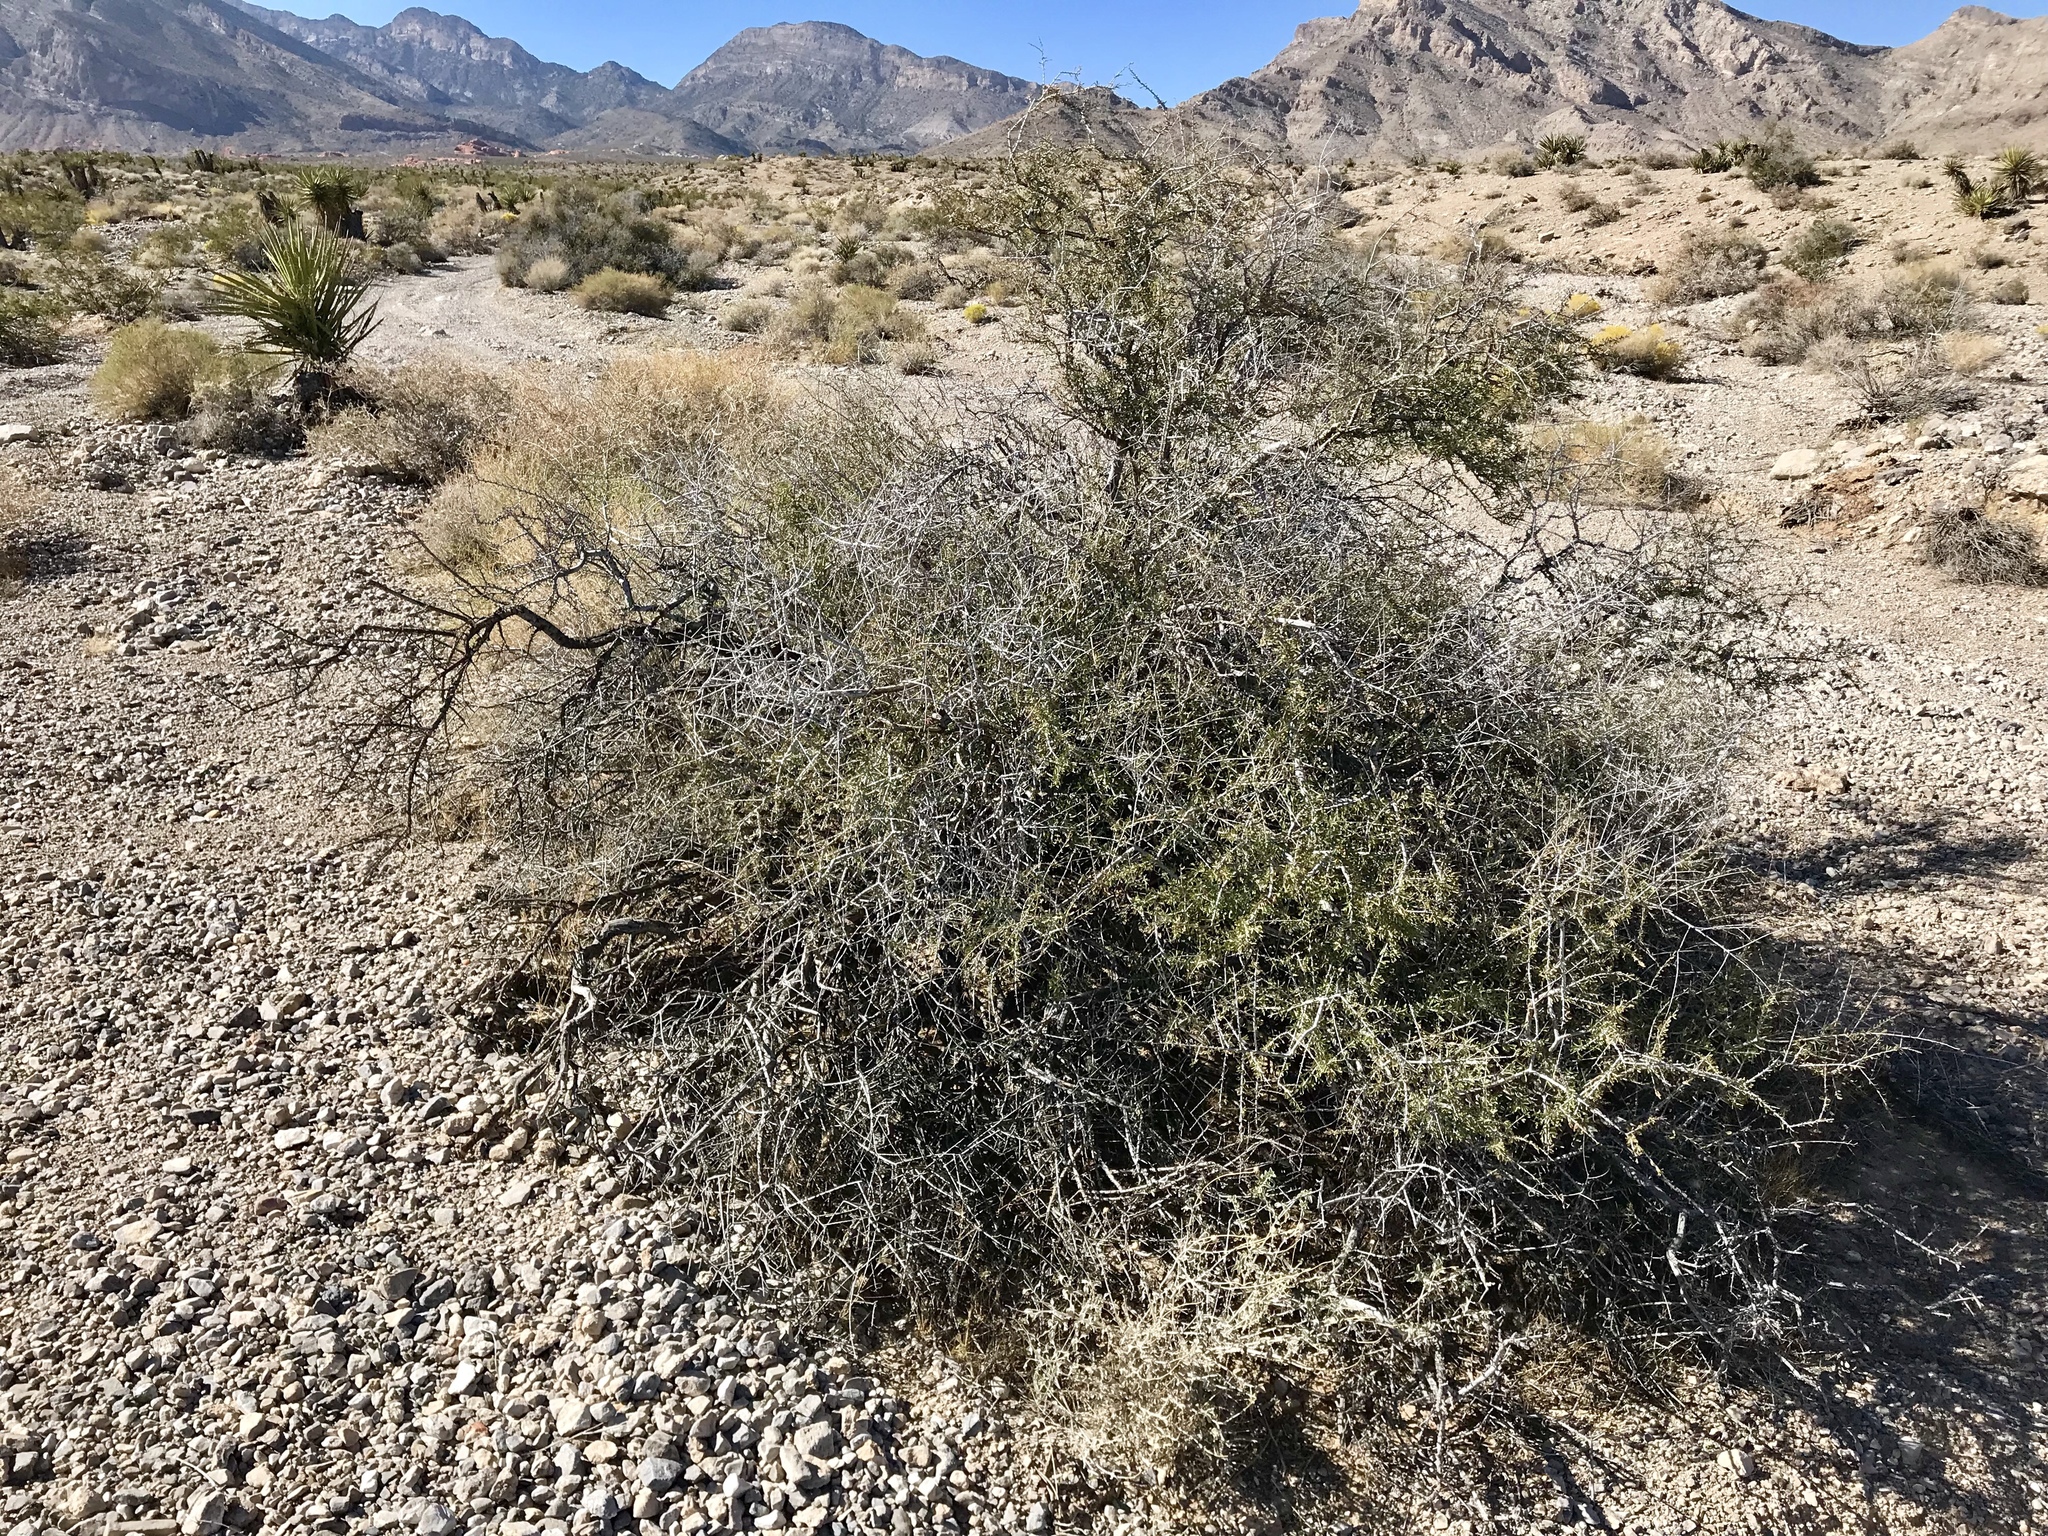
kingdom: Plantae
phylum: Tracheophyta
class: Magnoliopsida
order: Rosales
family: Rosaceae
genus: Prunus
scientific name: Prunus fasciculata
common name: Desert almond
